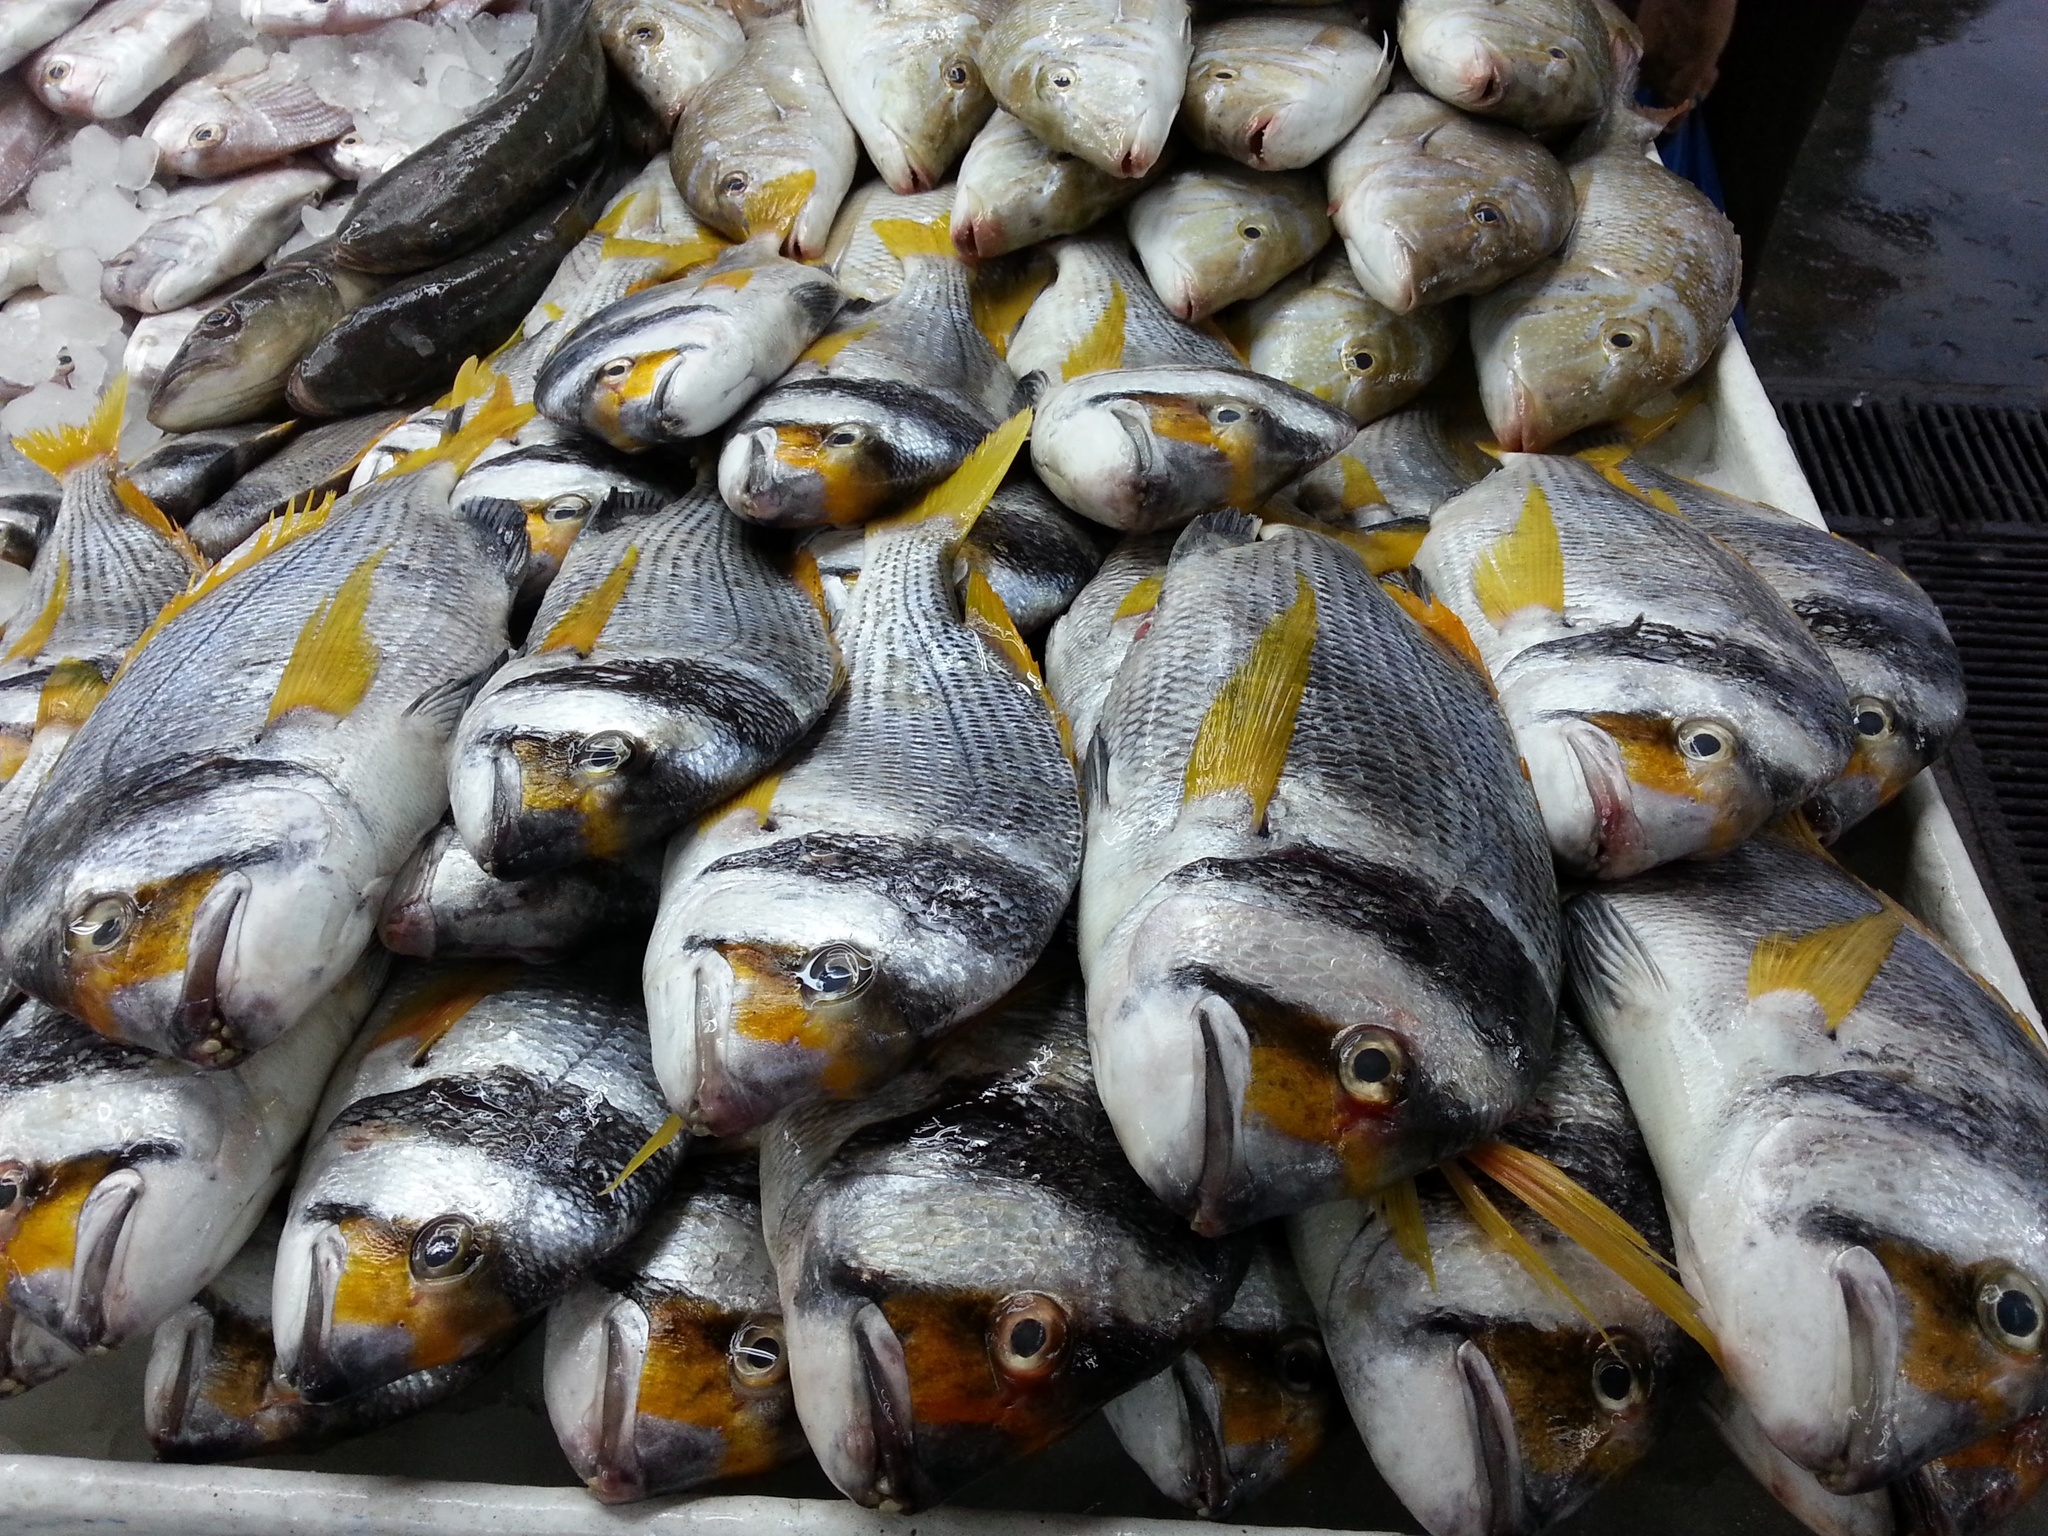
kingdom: Animalia
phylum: Chordata
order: Perciformes
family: Sparidae
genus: Acanthopagrus
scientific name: Acanthopagrus bifasciatus
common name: Twobar seabream
